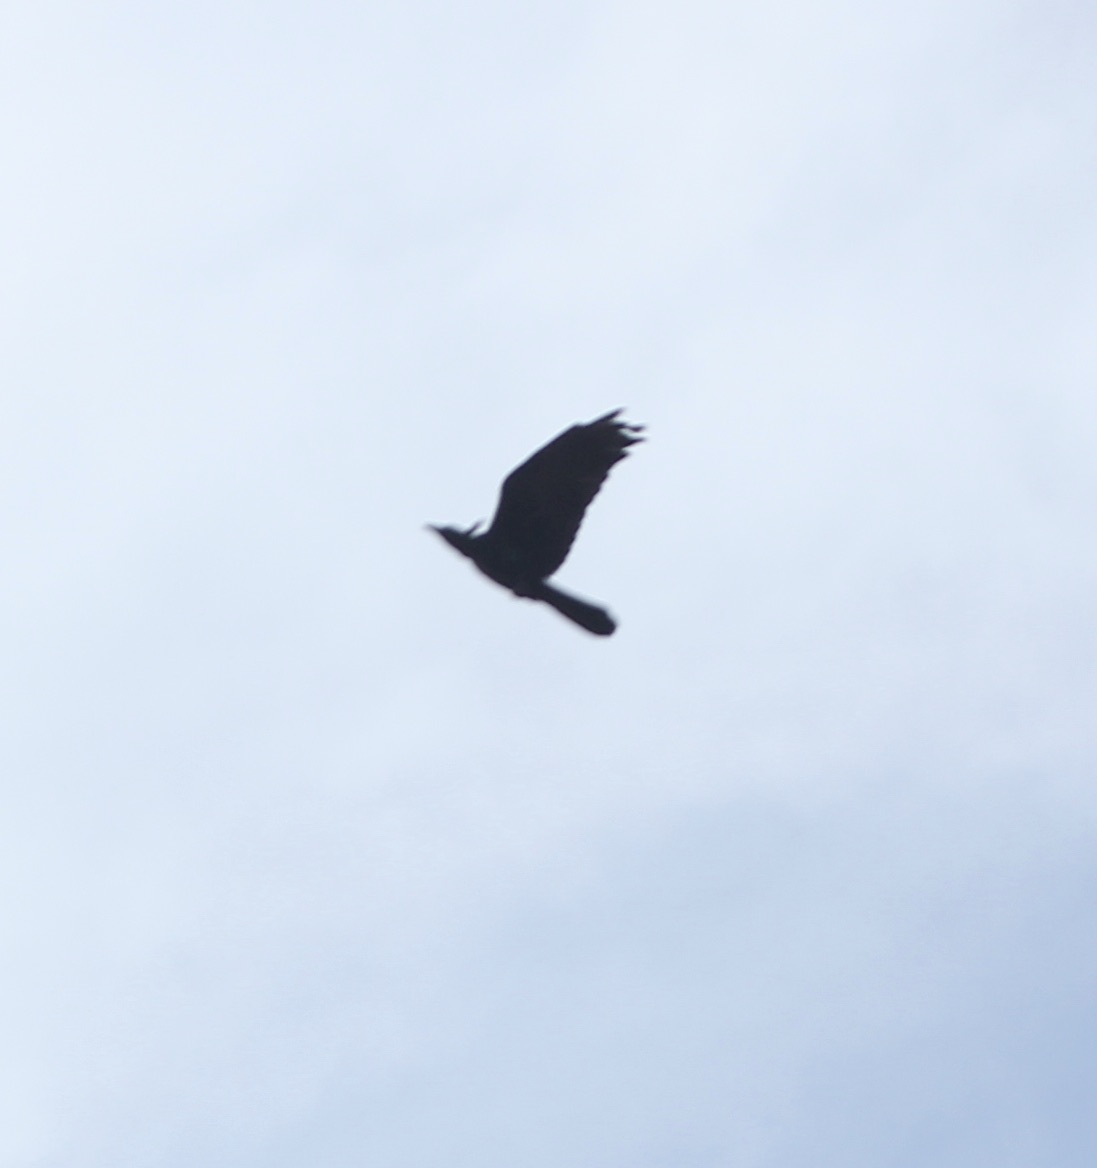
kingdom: Animalia
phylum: Chordata
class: Aves
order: Passeriformes
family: Icteridae
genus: Quiscalus
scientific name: Quiscalus mexicanus
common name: Great-tailed grackle
